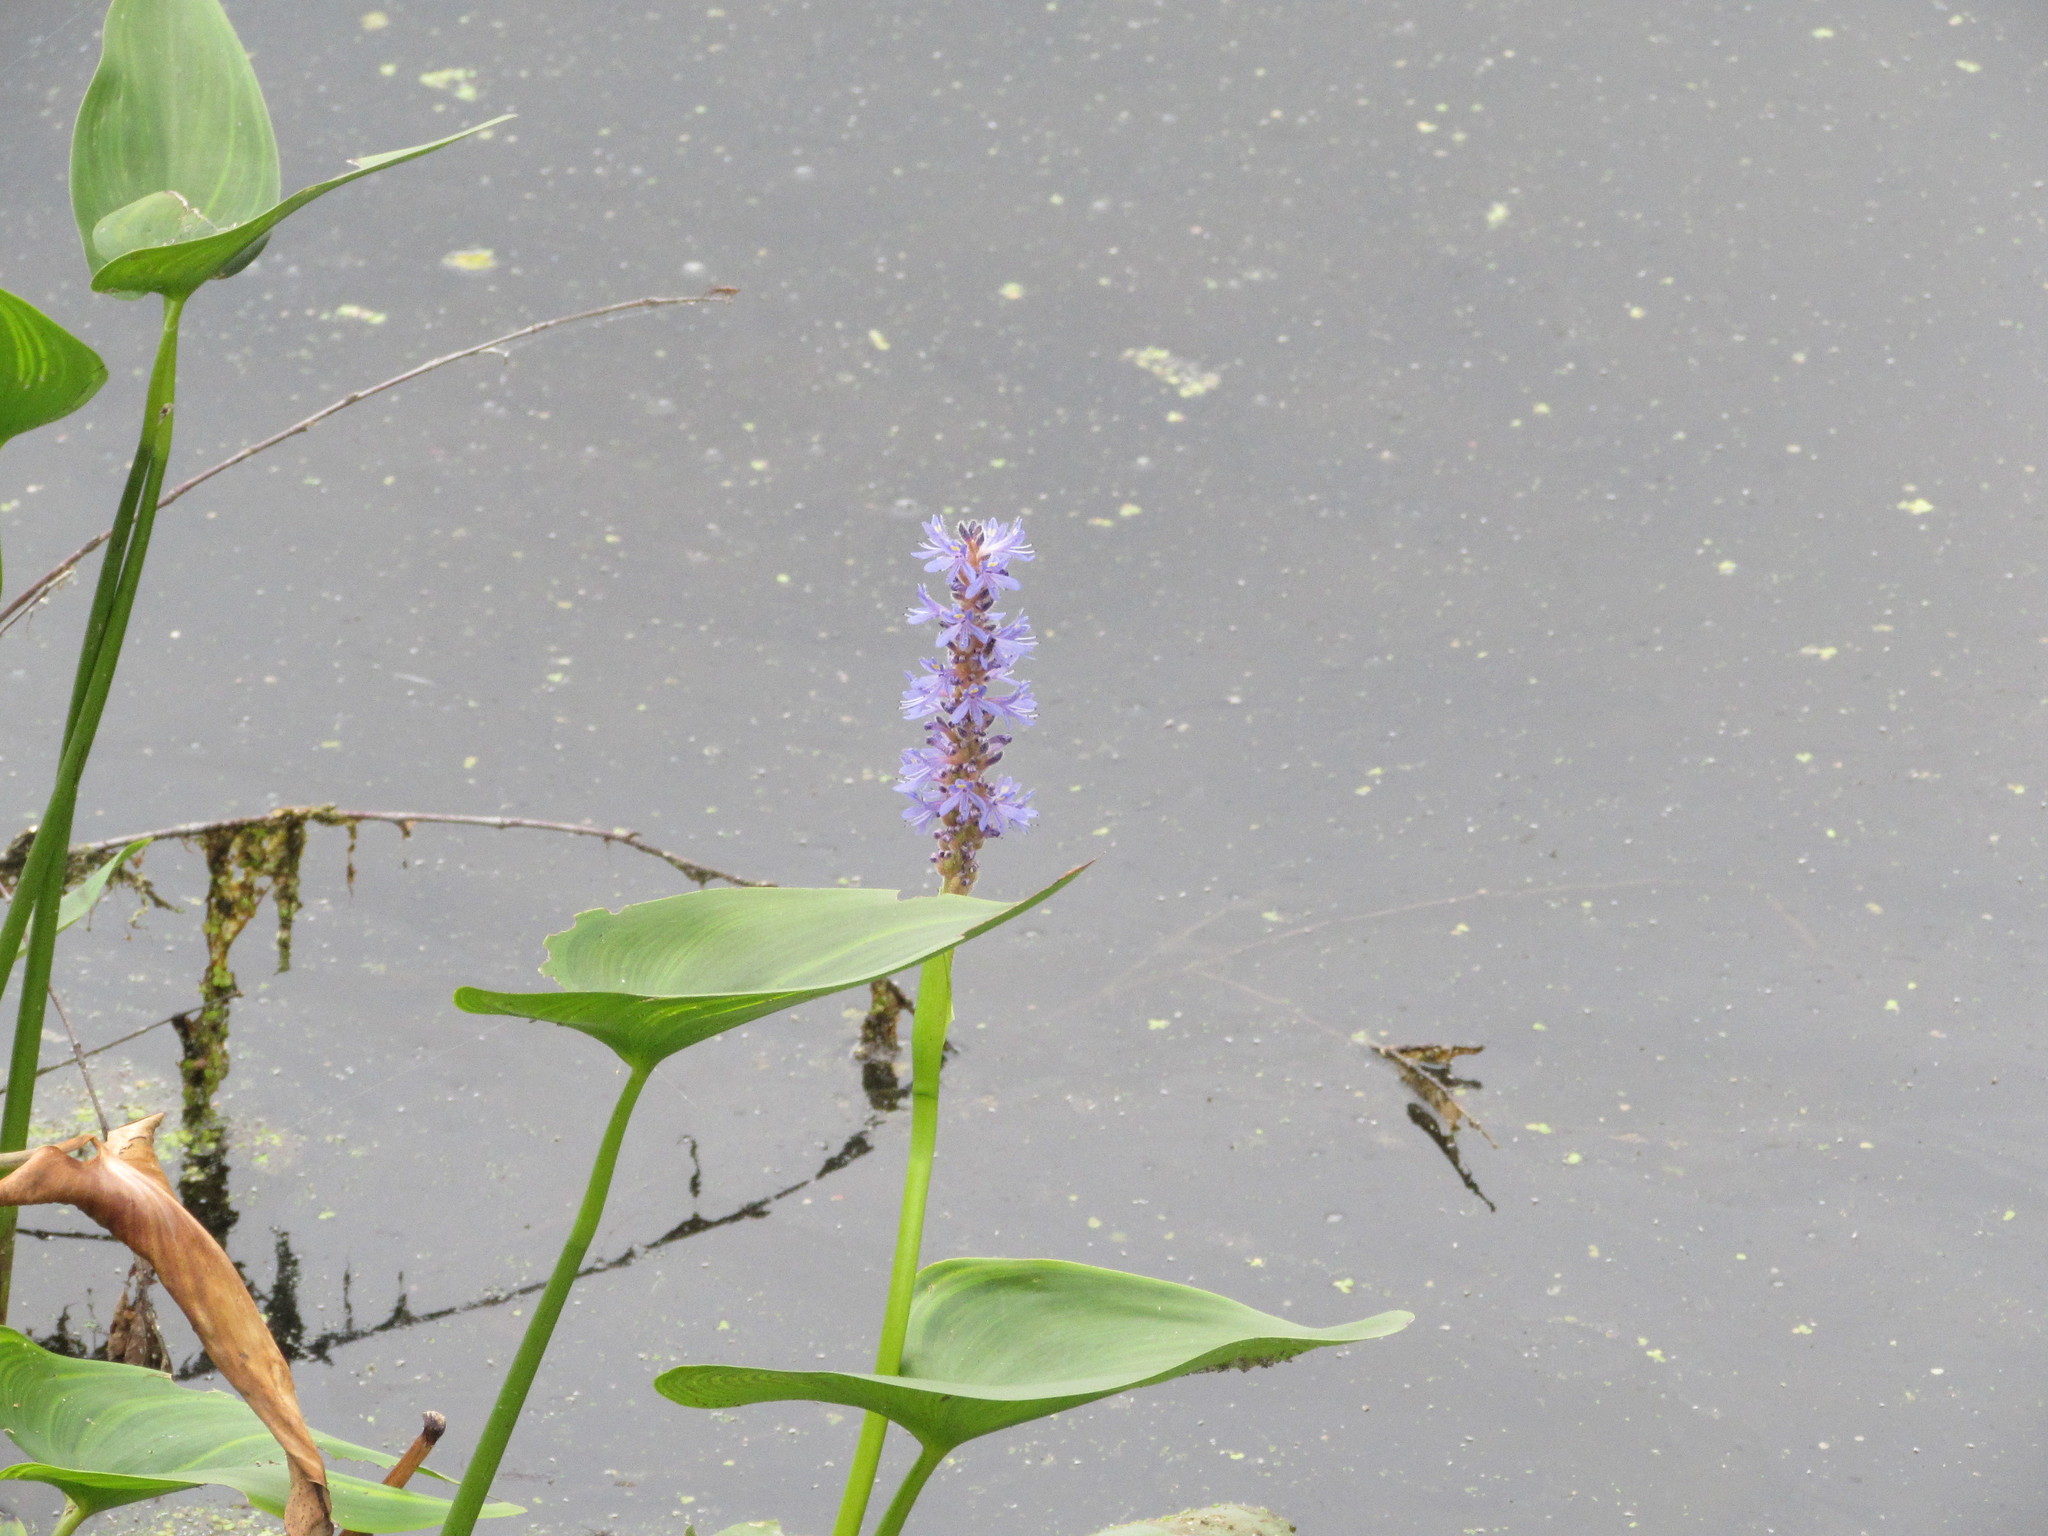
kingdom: Plantae
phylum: Tracheophyta
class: Liliopsida
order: Commelinales
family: Pontederiaceae
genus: Pontederia
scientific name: Pontederia cordata
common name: Pickerelweed
